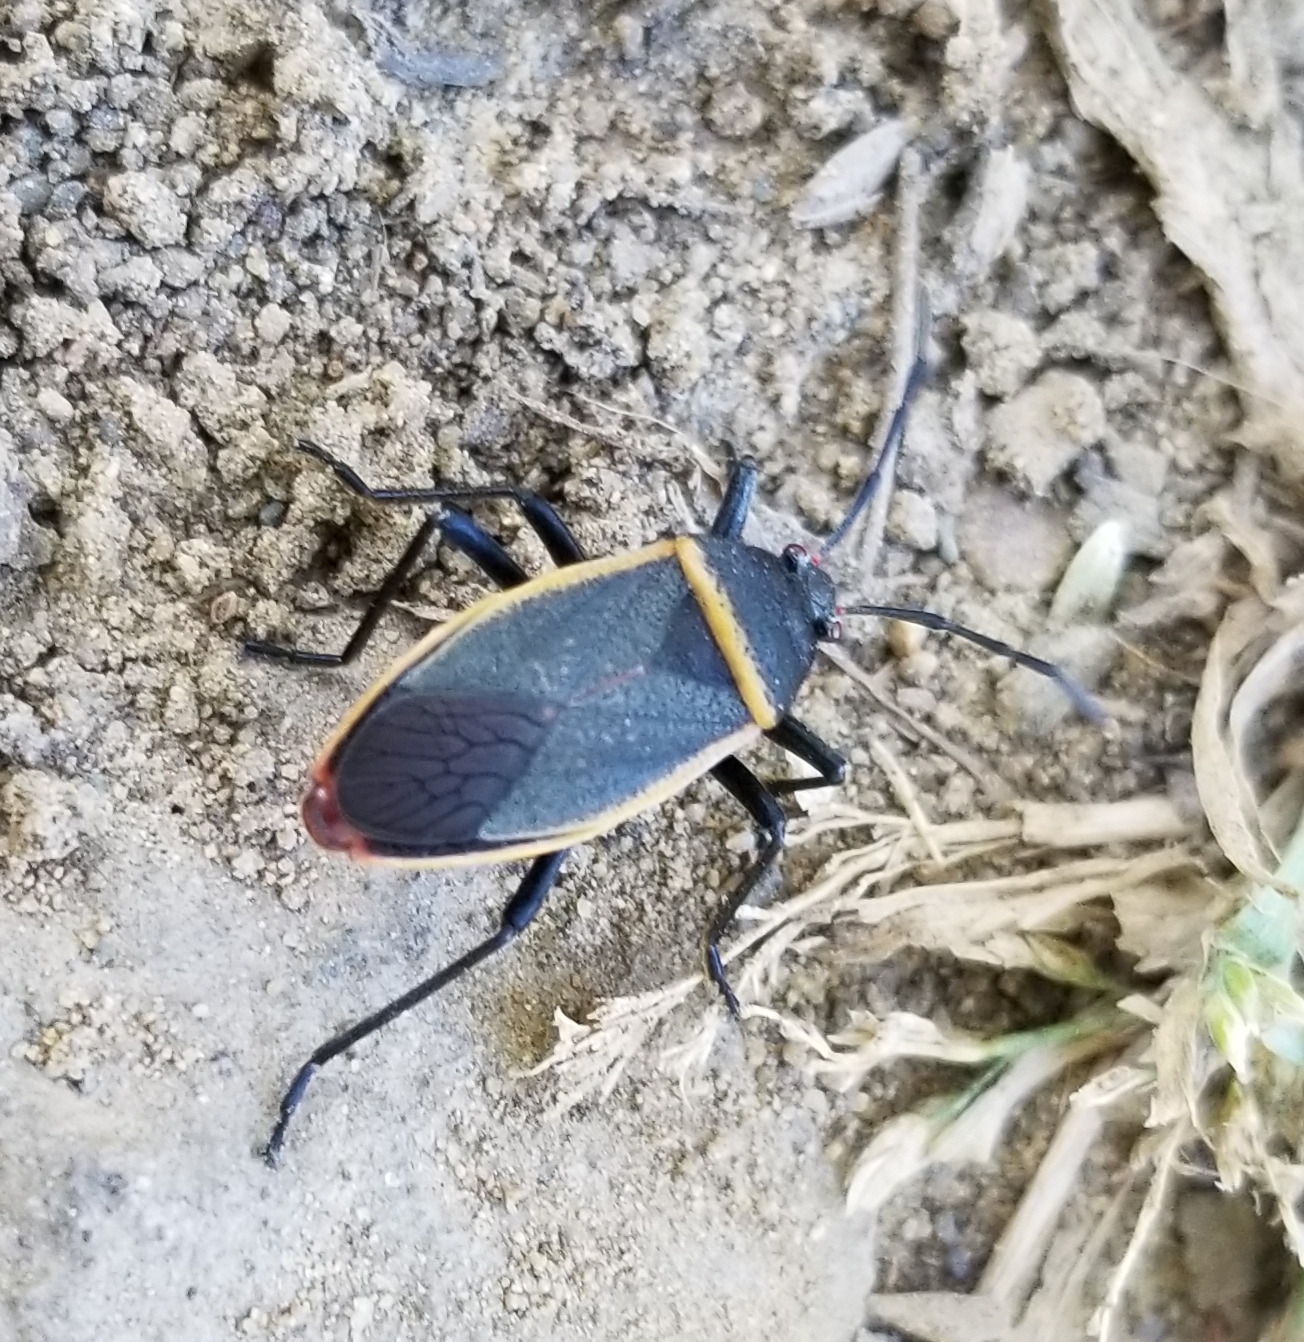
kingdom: Animalia
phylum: Arthropoda
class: Insecta
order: Hemiptera
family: Largidae
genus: Largus
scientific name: Largus californicus
